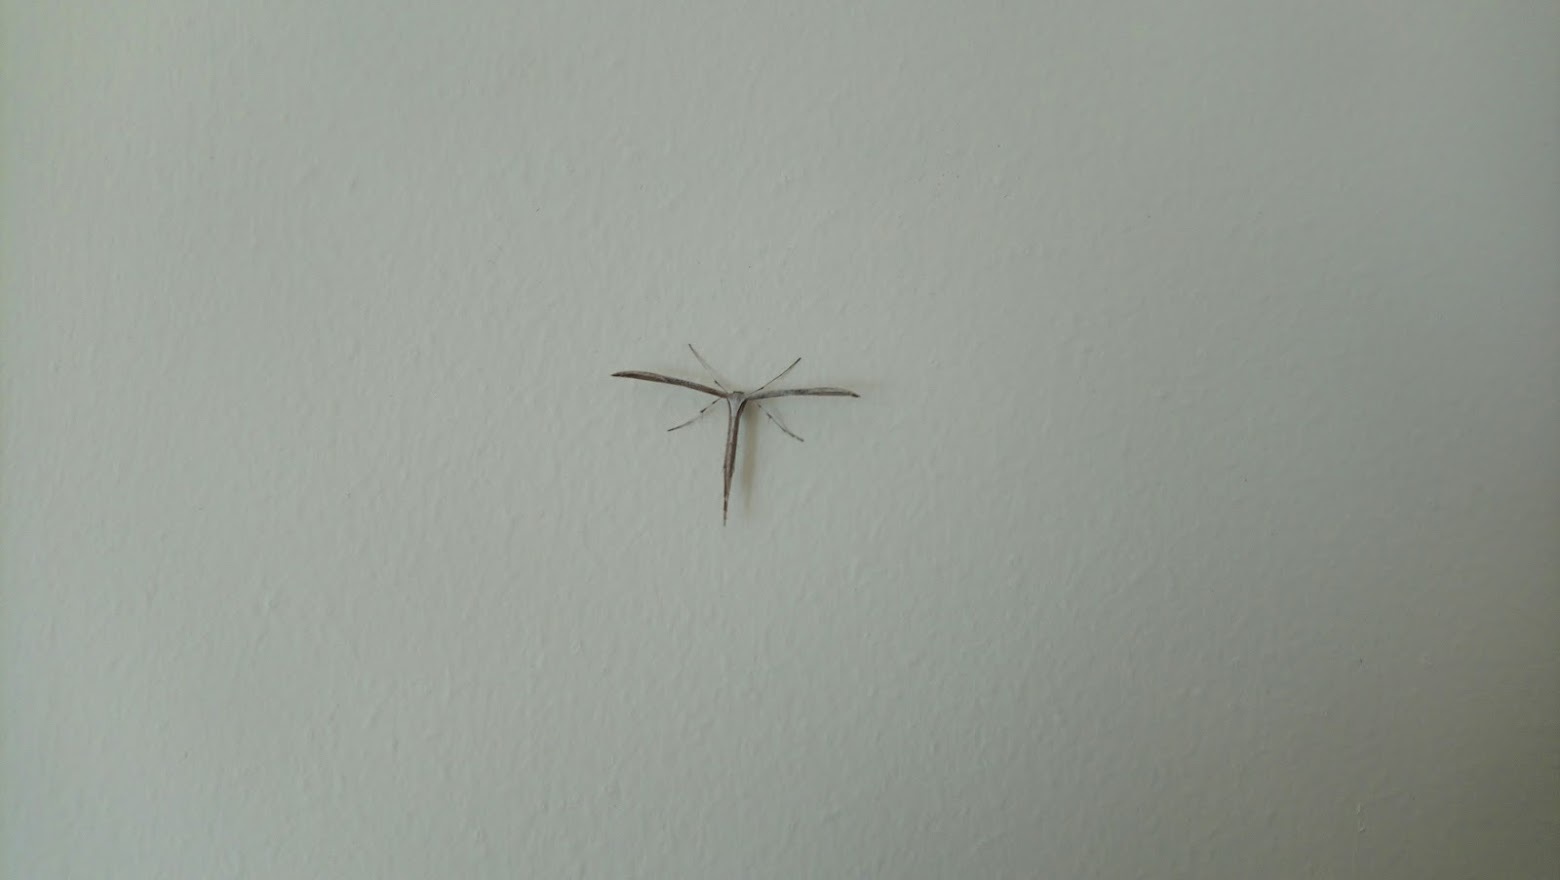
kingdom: Animalia
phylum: Arthropoda
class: Insecta
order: Lepidoptera
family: Pterophoridae
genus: Emmelina
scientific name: Emmelina monodactyla
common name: Common plume
